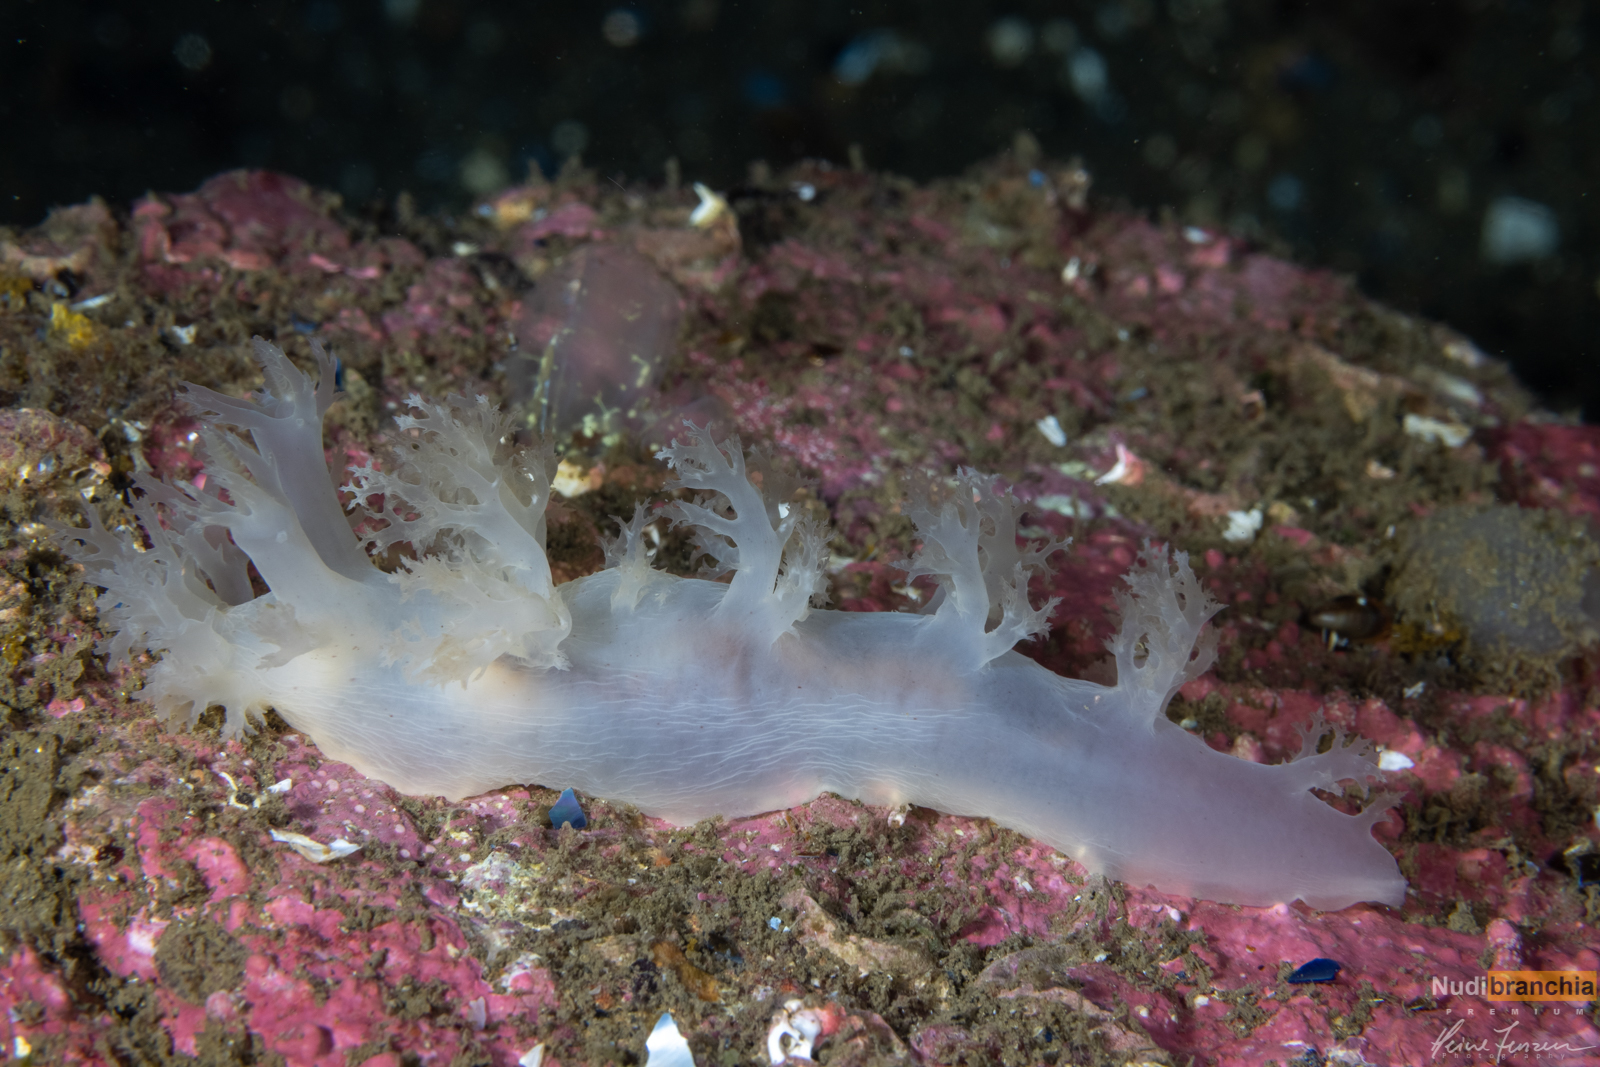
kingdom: Animalia
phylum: Mollusca
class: Gastropoda
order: Nudibranchia
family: Dendronotidae
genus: Dendronotus
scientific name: Dendronotus lacteus
